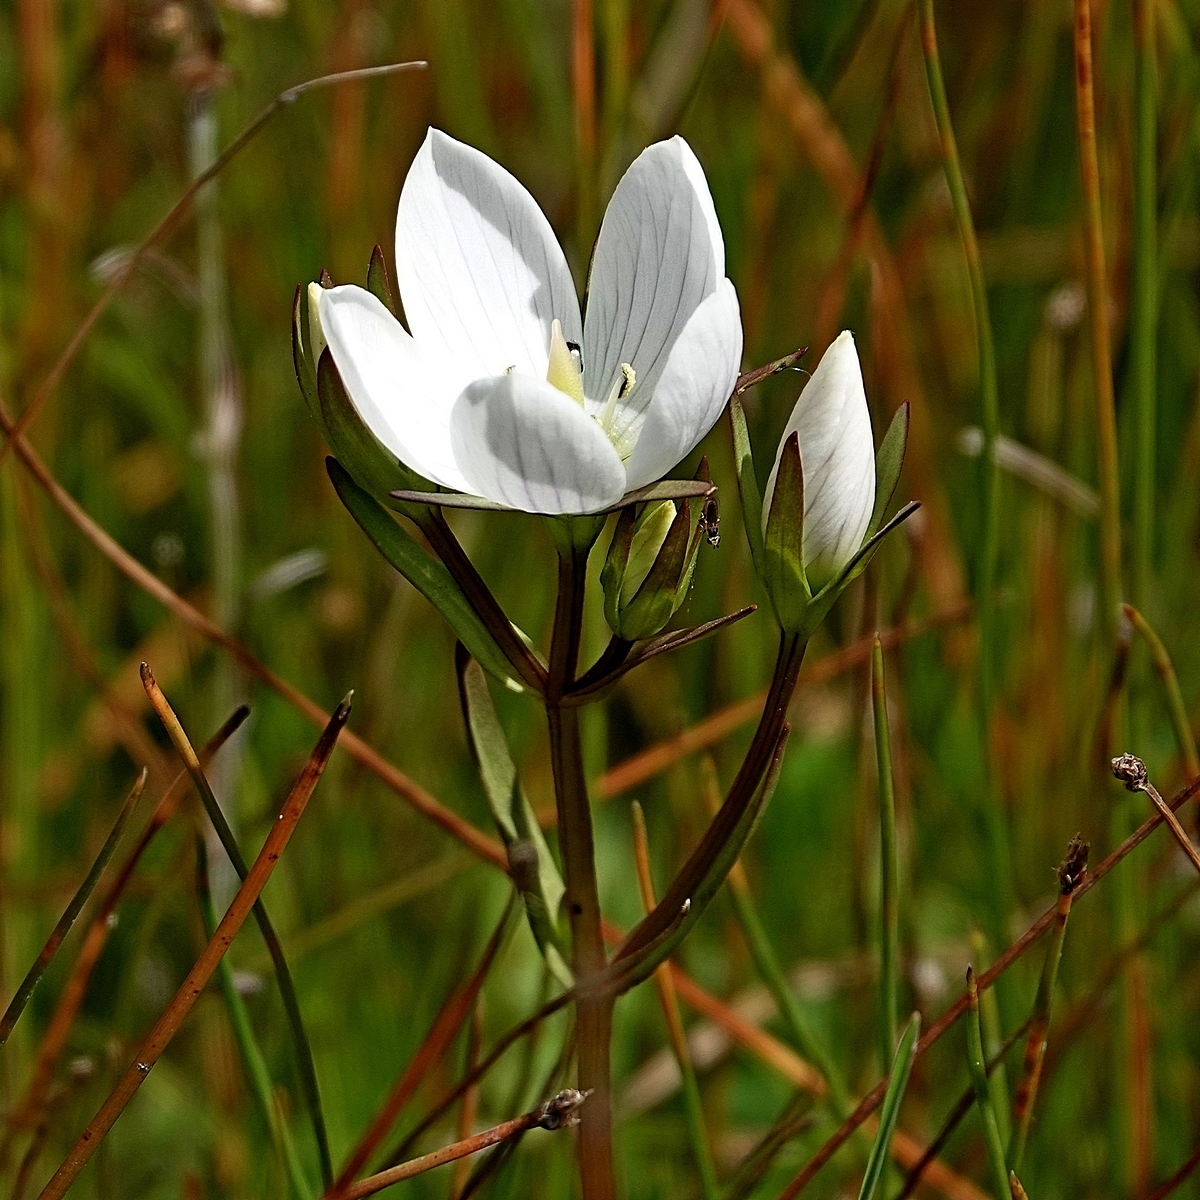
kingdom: Plantae
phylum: Tracheophyta
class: Magnoliopsida
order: Gentianales
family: Gentianaceae
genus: Gentianella
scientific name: Gentianella cunninghamii
